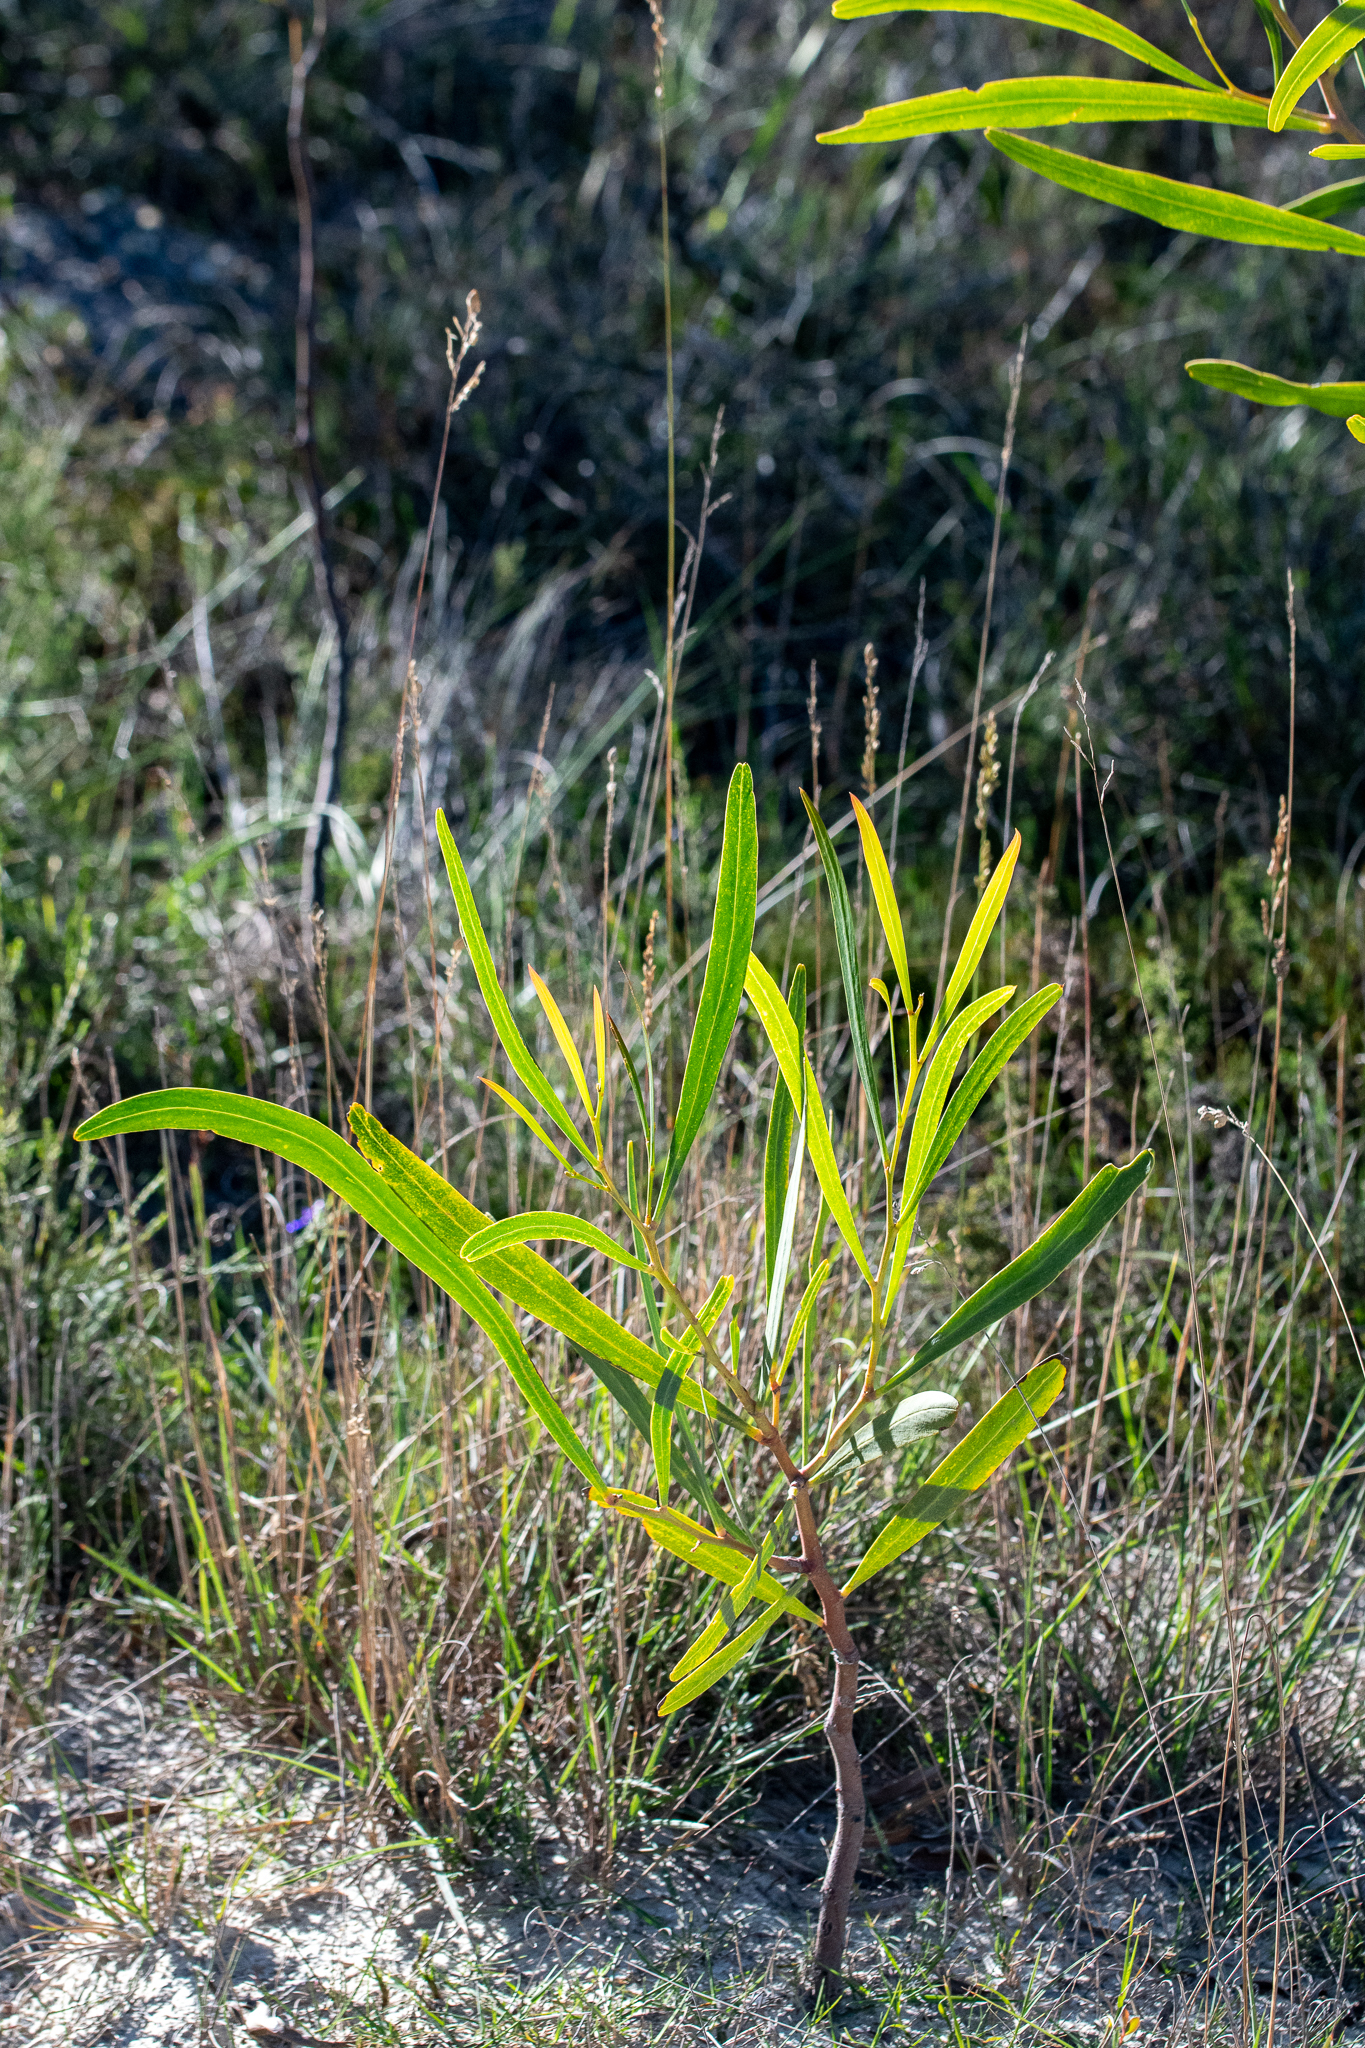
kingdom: Plantae
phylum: Tracheophyta
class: Magnoliopsida
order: Fabales
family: Fabaceae
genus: Acacia
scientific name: Acacia saligna
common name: Orange wattle
